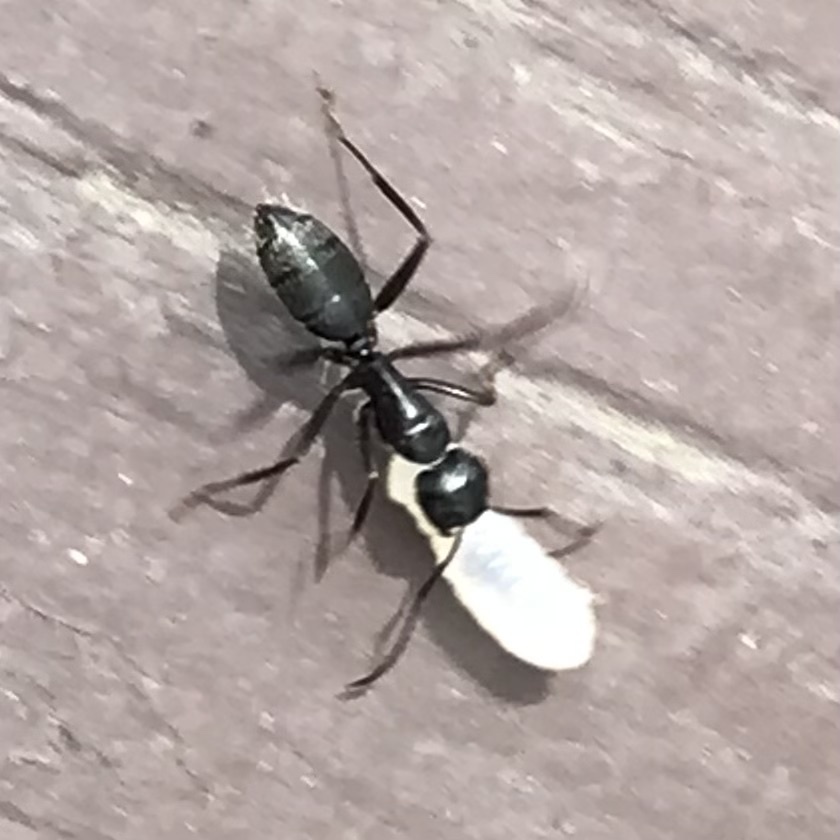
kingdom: Animalia
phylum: Arthropoda
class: Insecta
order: Hymenoptera
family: Formicidae
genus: Camponotus
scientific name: Camponotus pennsylvanicus
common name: Black carpenter ant
